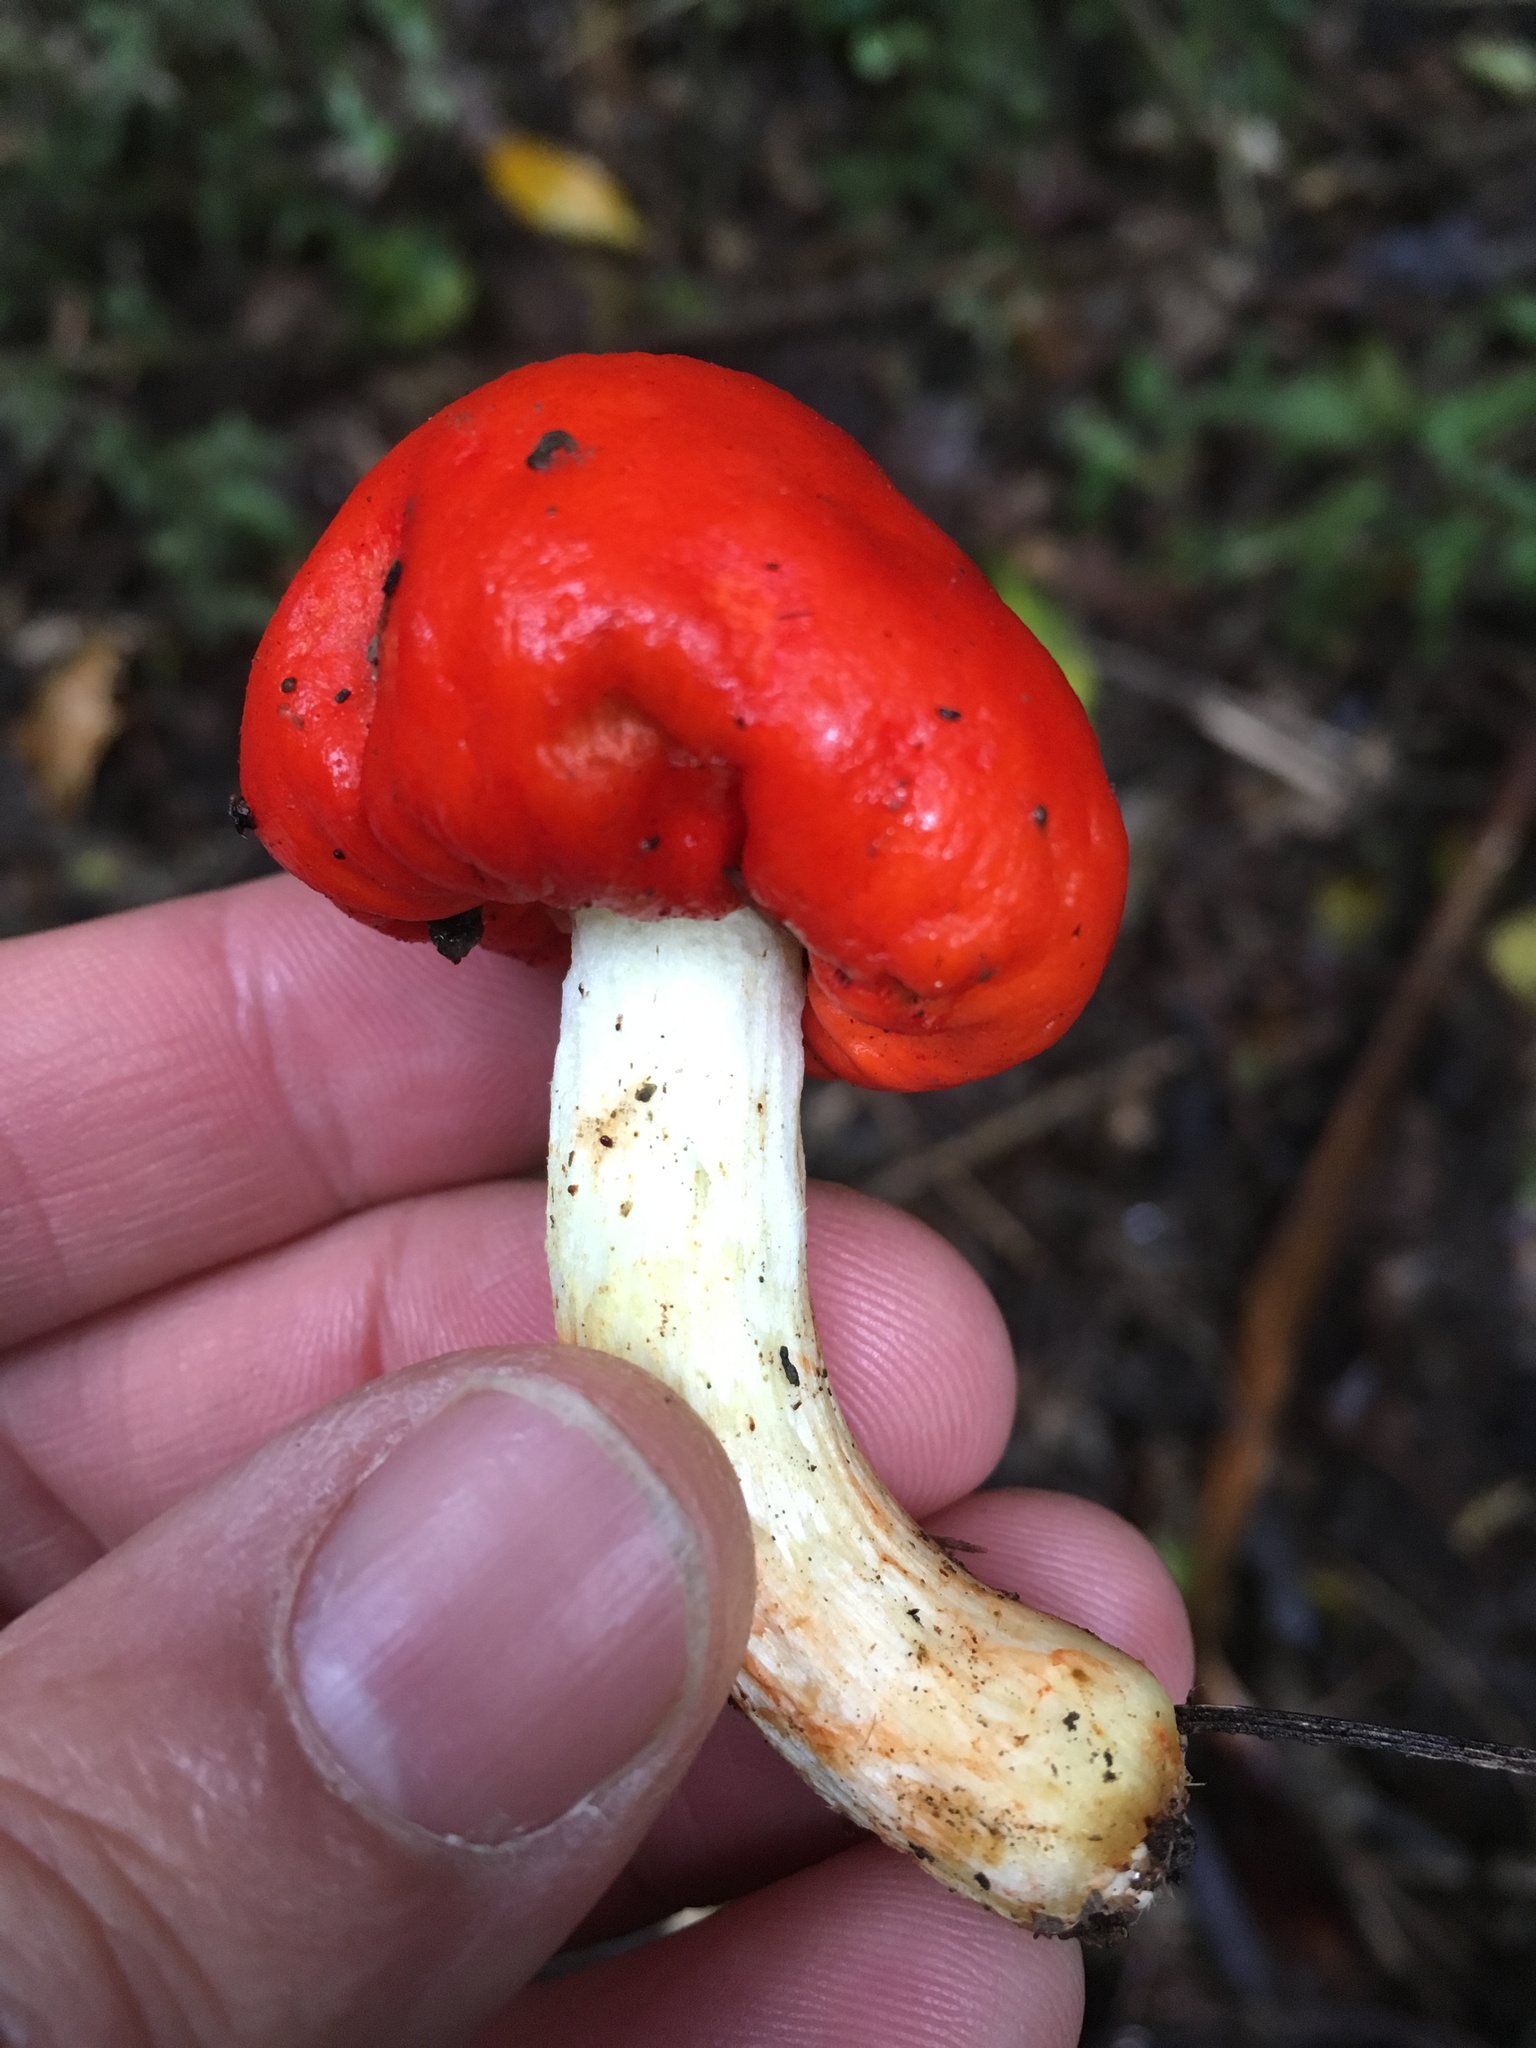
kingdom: Fungi
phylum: Basidiomycota
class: Agaricomycetes
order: Agaricales
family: Strophariaceae
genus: Leratiomyces
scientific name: Leratiomyces erythrocephalus
